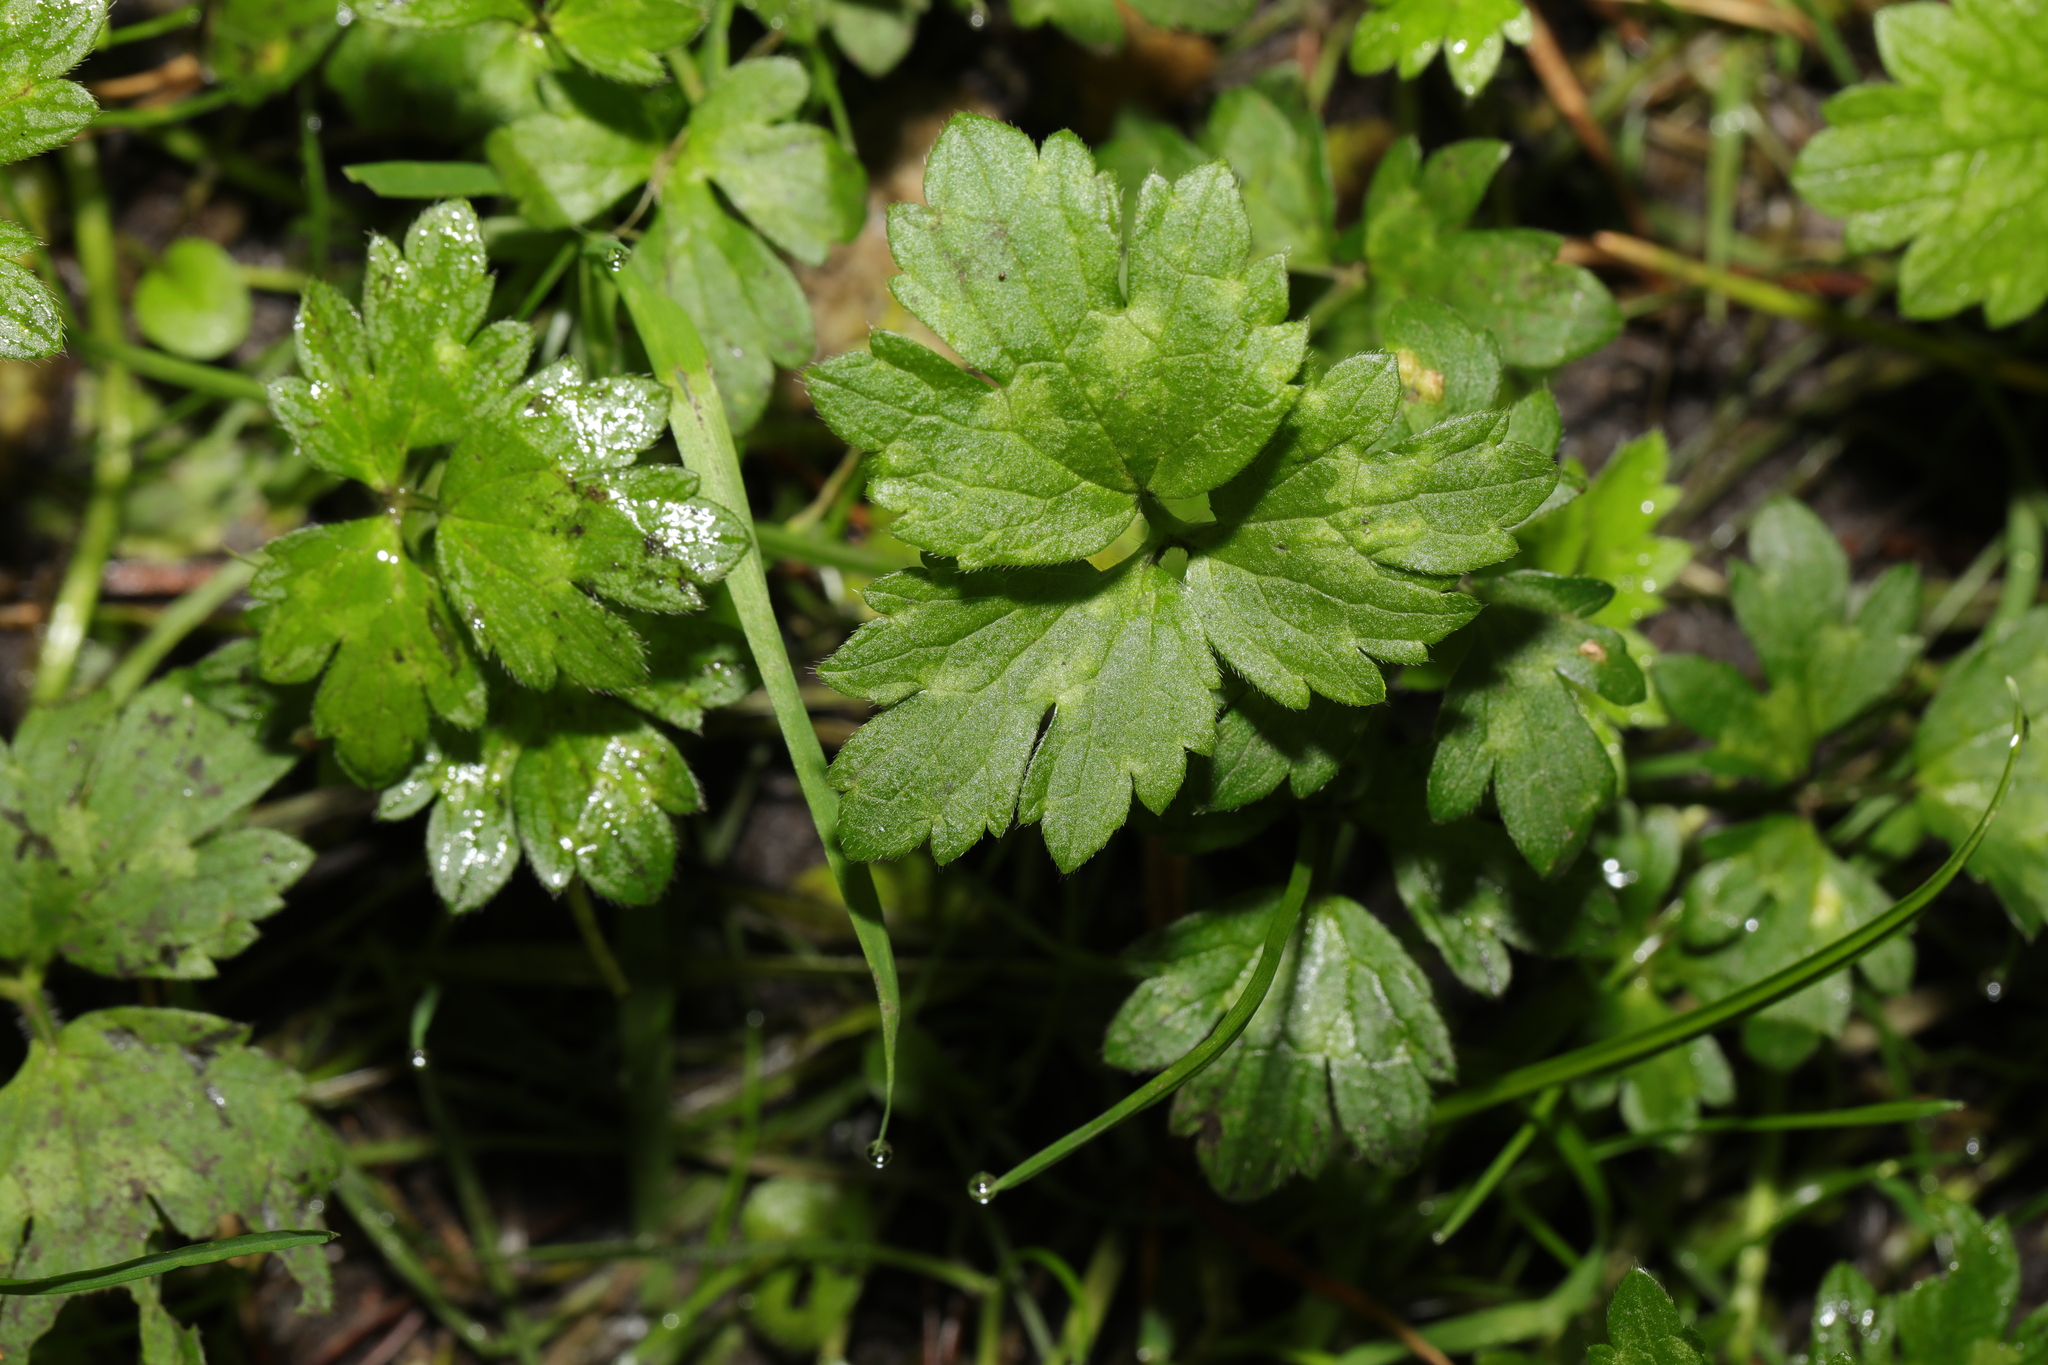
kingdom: Plantae
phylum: Tracheophyta
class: Magnoliopsida
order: Ranunculales
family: Ranunculaceae
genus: Ranunculus
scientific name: Ranunculus repens
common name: Creeping buttercup
